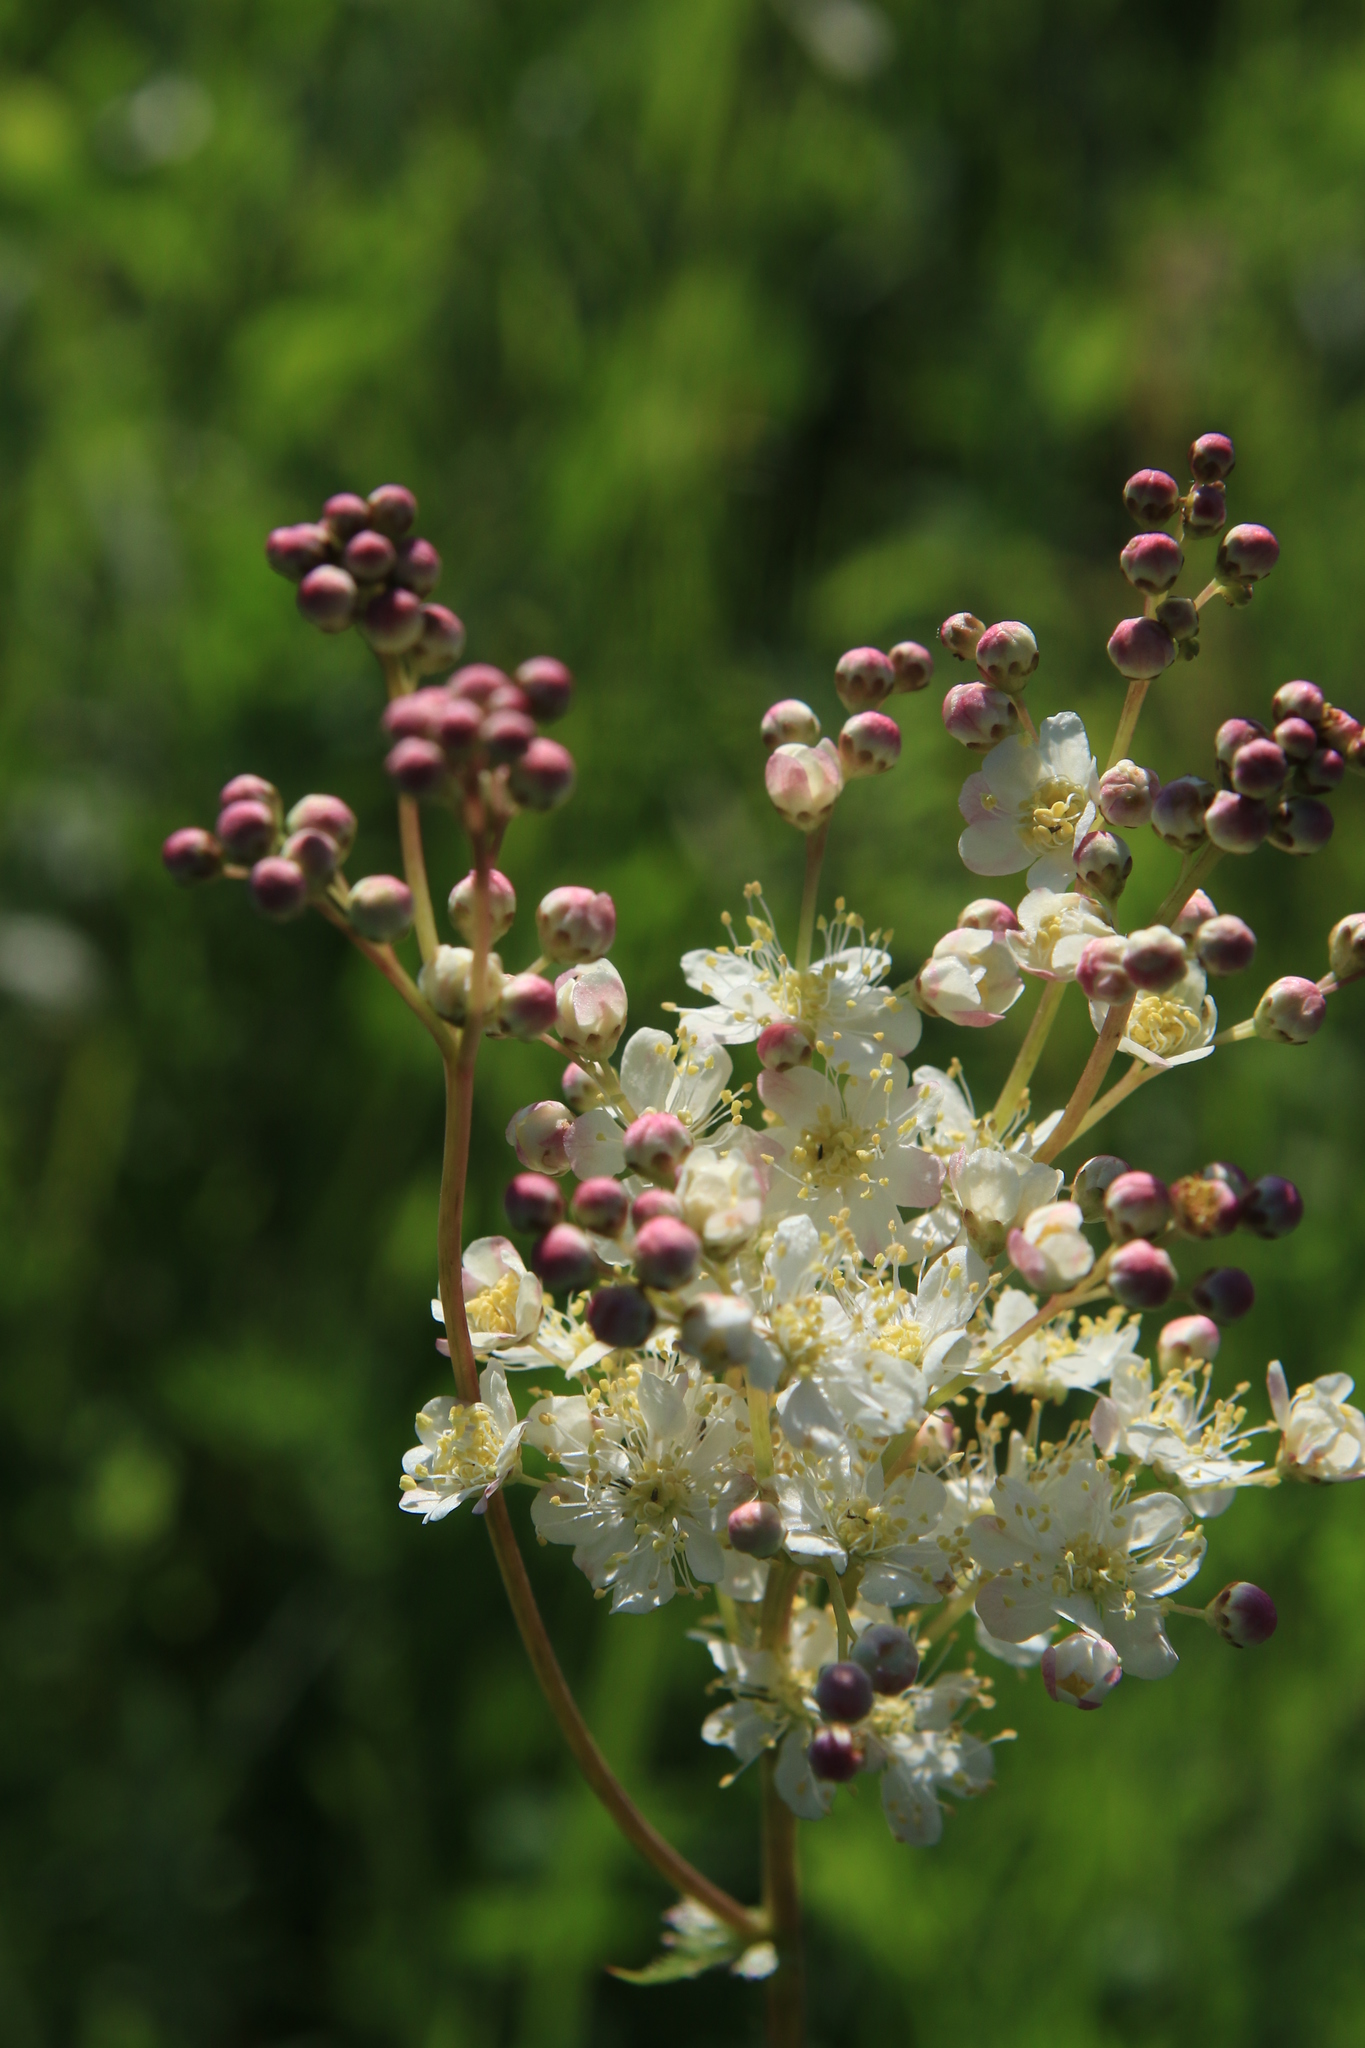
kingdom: Plantae
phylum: Tracheophyta
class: Magnoliopsida
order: Rosales
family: Rosaceae
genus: Filipendula
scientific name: Filipendula vulgaris
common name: Dropwort
